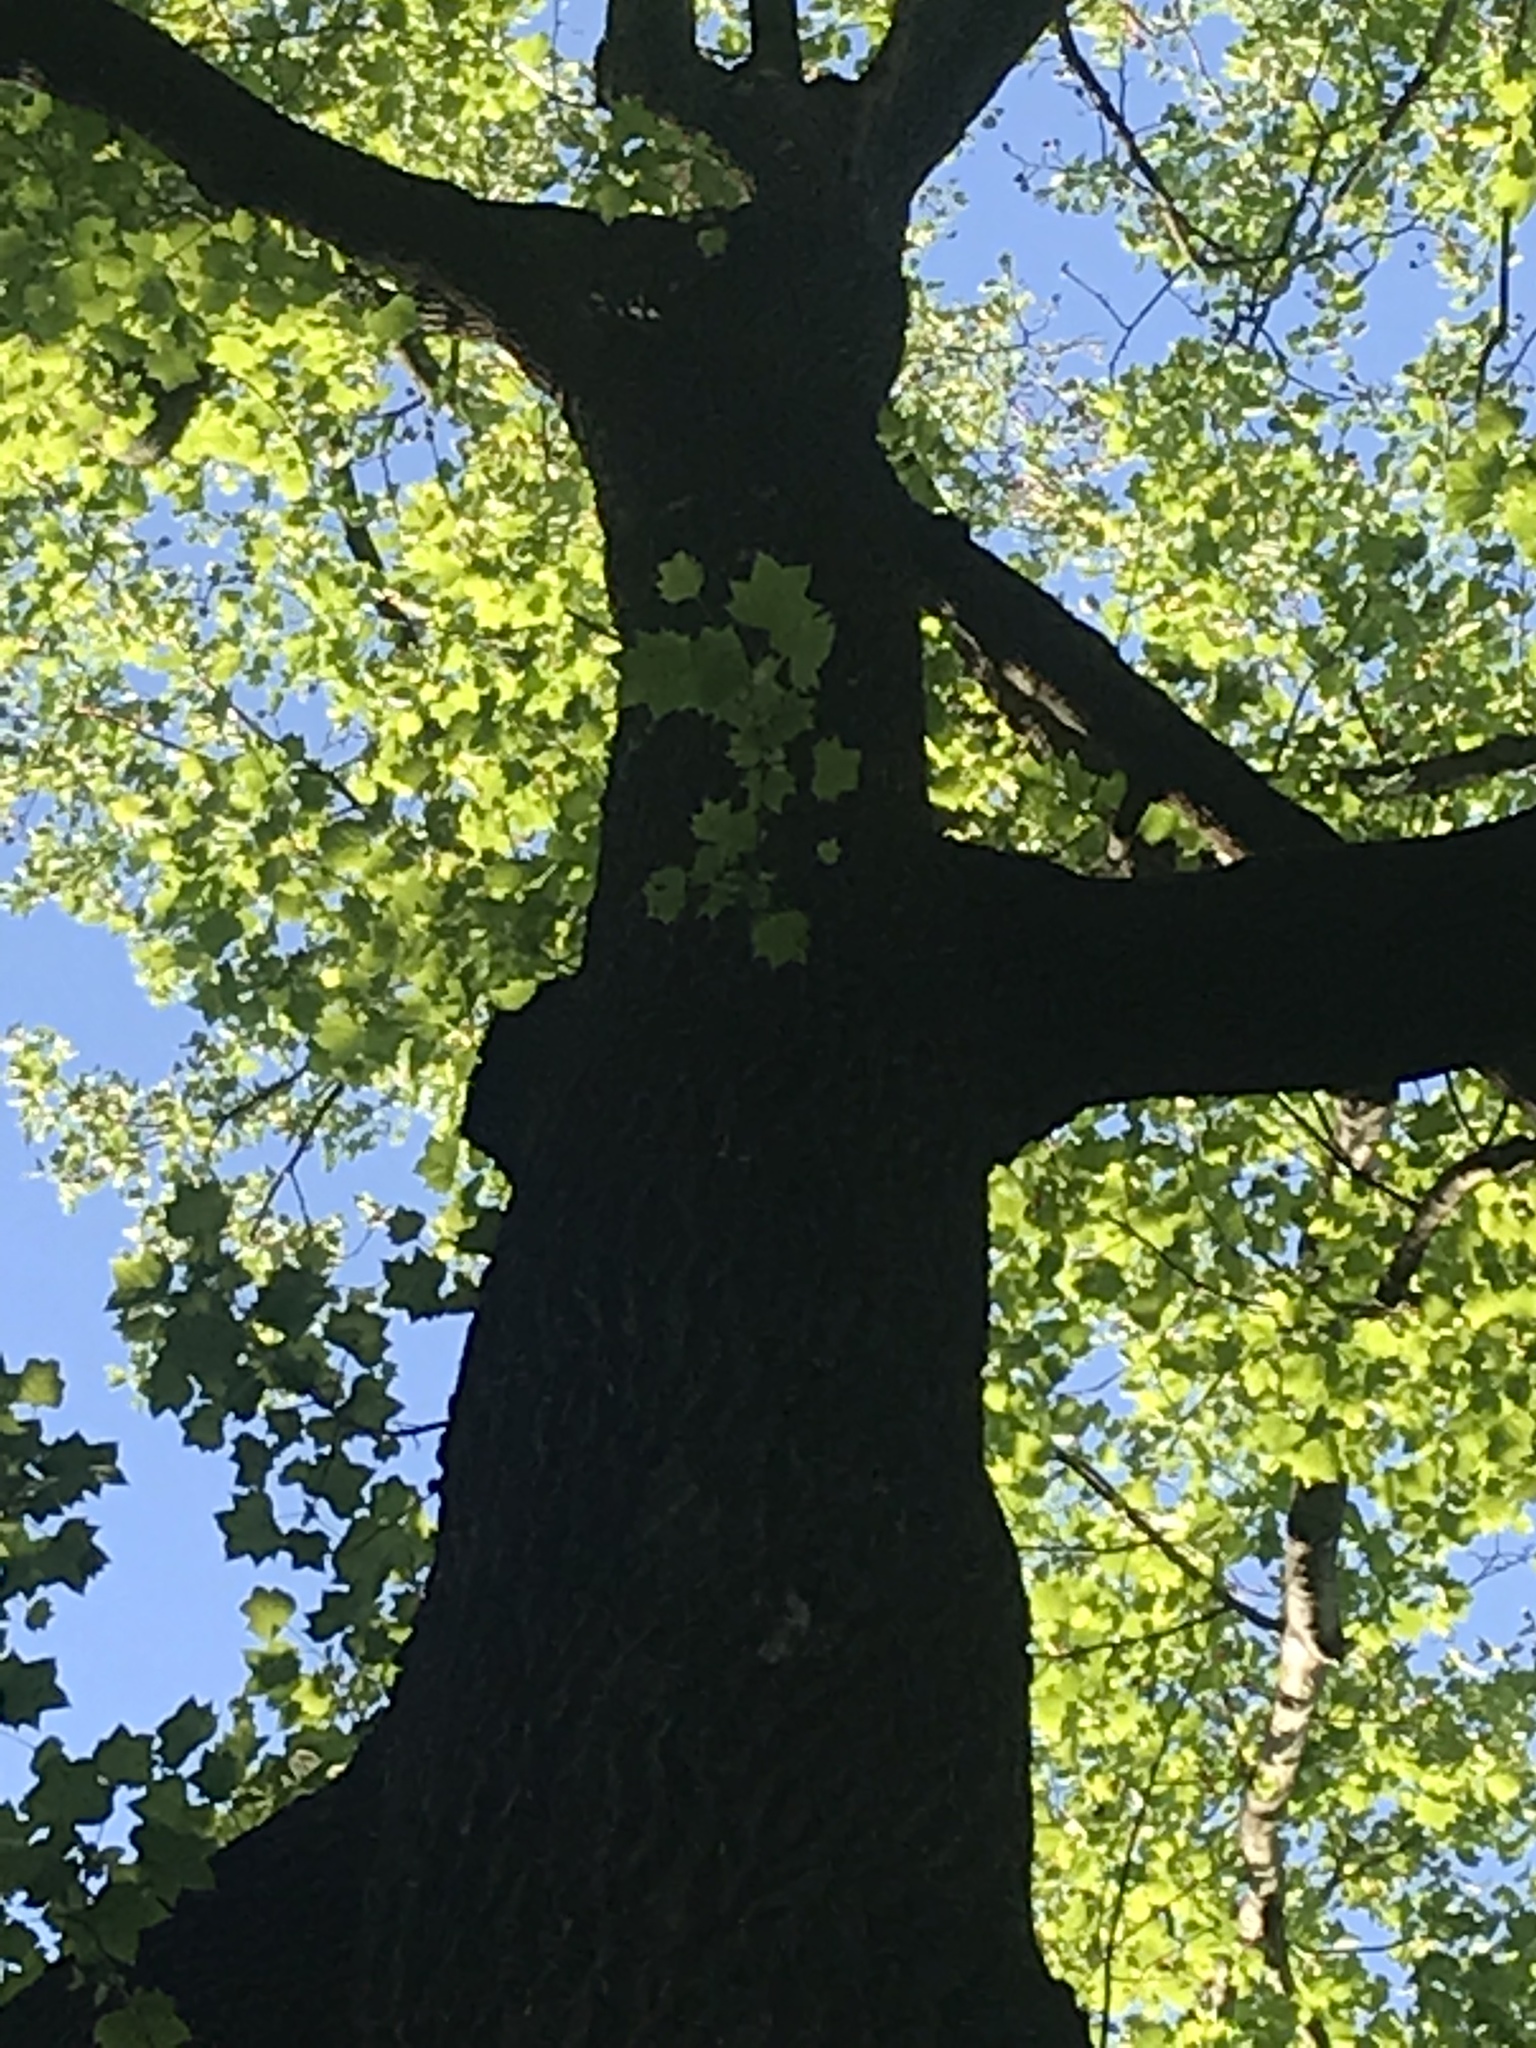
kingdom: Plantae
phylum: Tracheophyta
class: Magnoliopsida
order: Magnoliales
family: Magnoliaceae
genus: Liriodendron
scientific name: Liriodendron tulipifera
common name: Tulip tree
